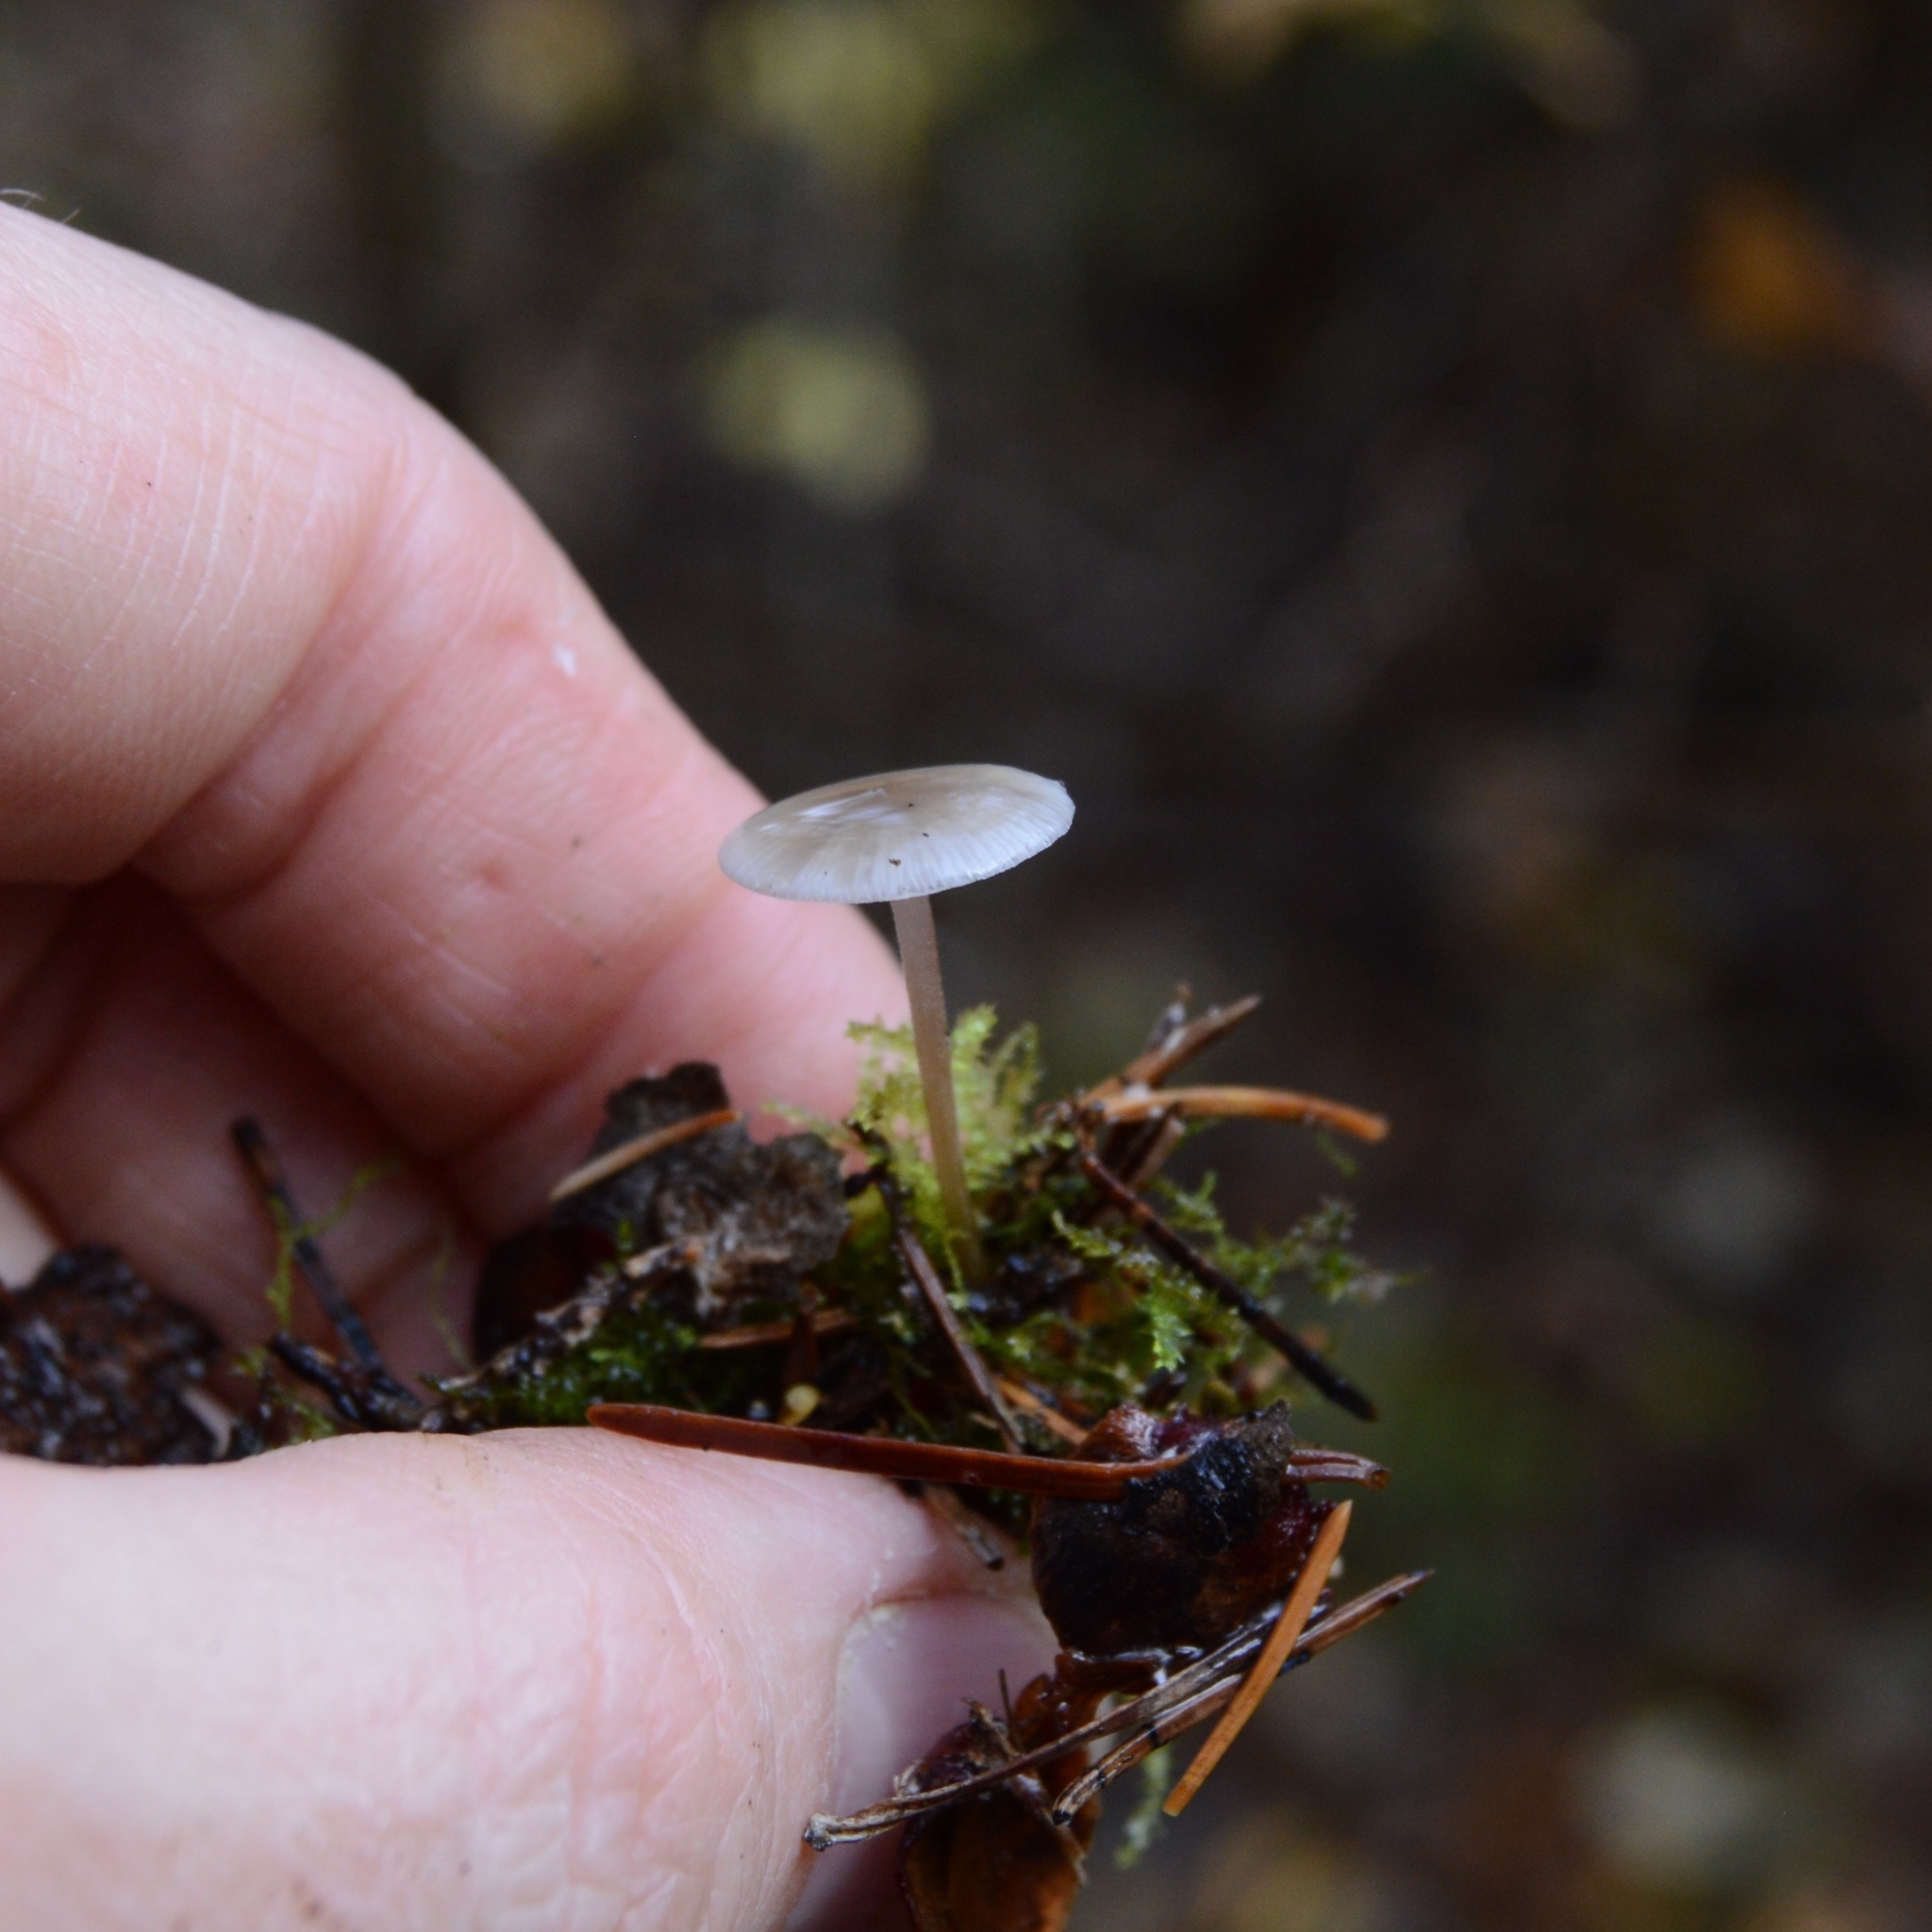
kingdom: Fungi
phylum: Basidiomycota
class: Agaricomycetes
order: Agaricales
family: Tricholomataceae
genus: Collybia
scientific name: Collybia cirrhata
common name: Piggyback shanklet
